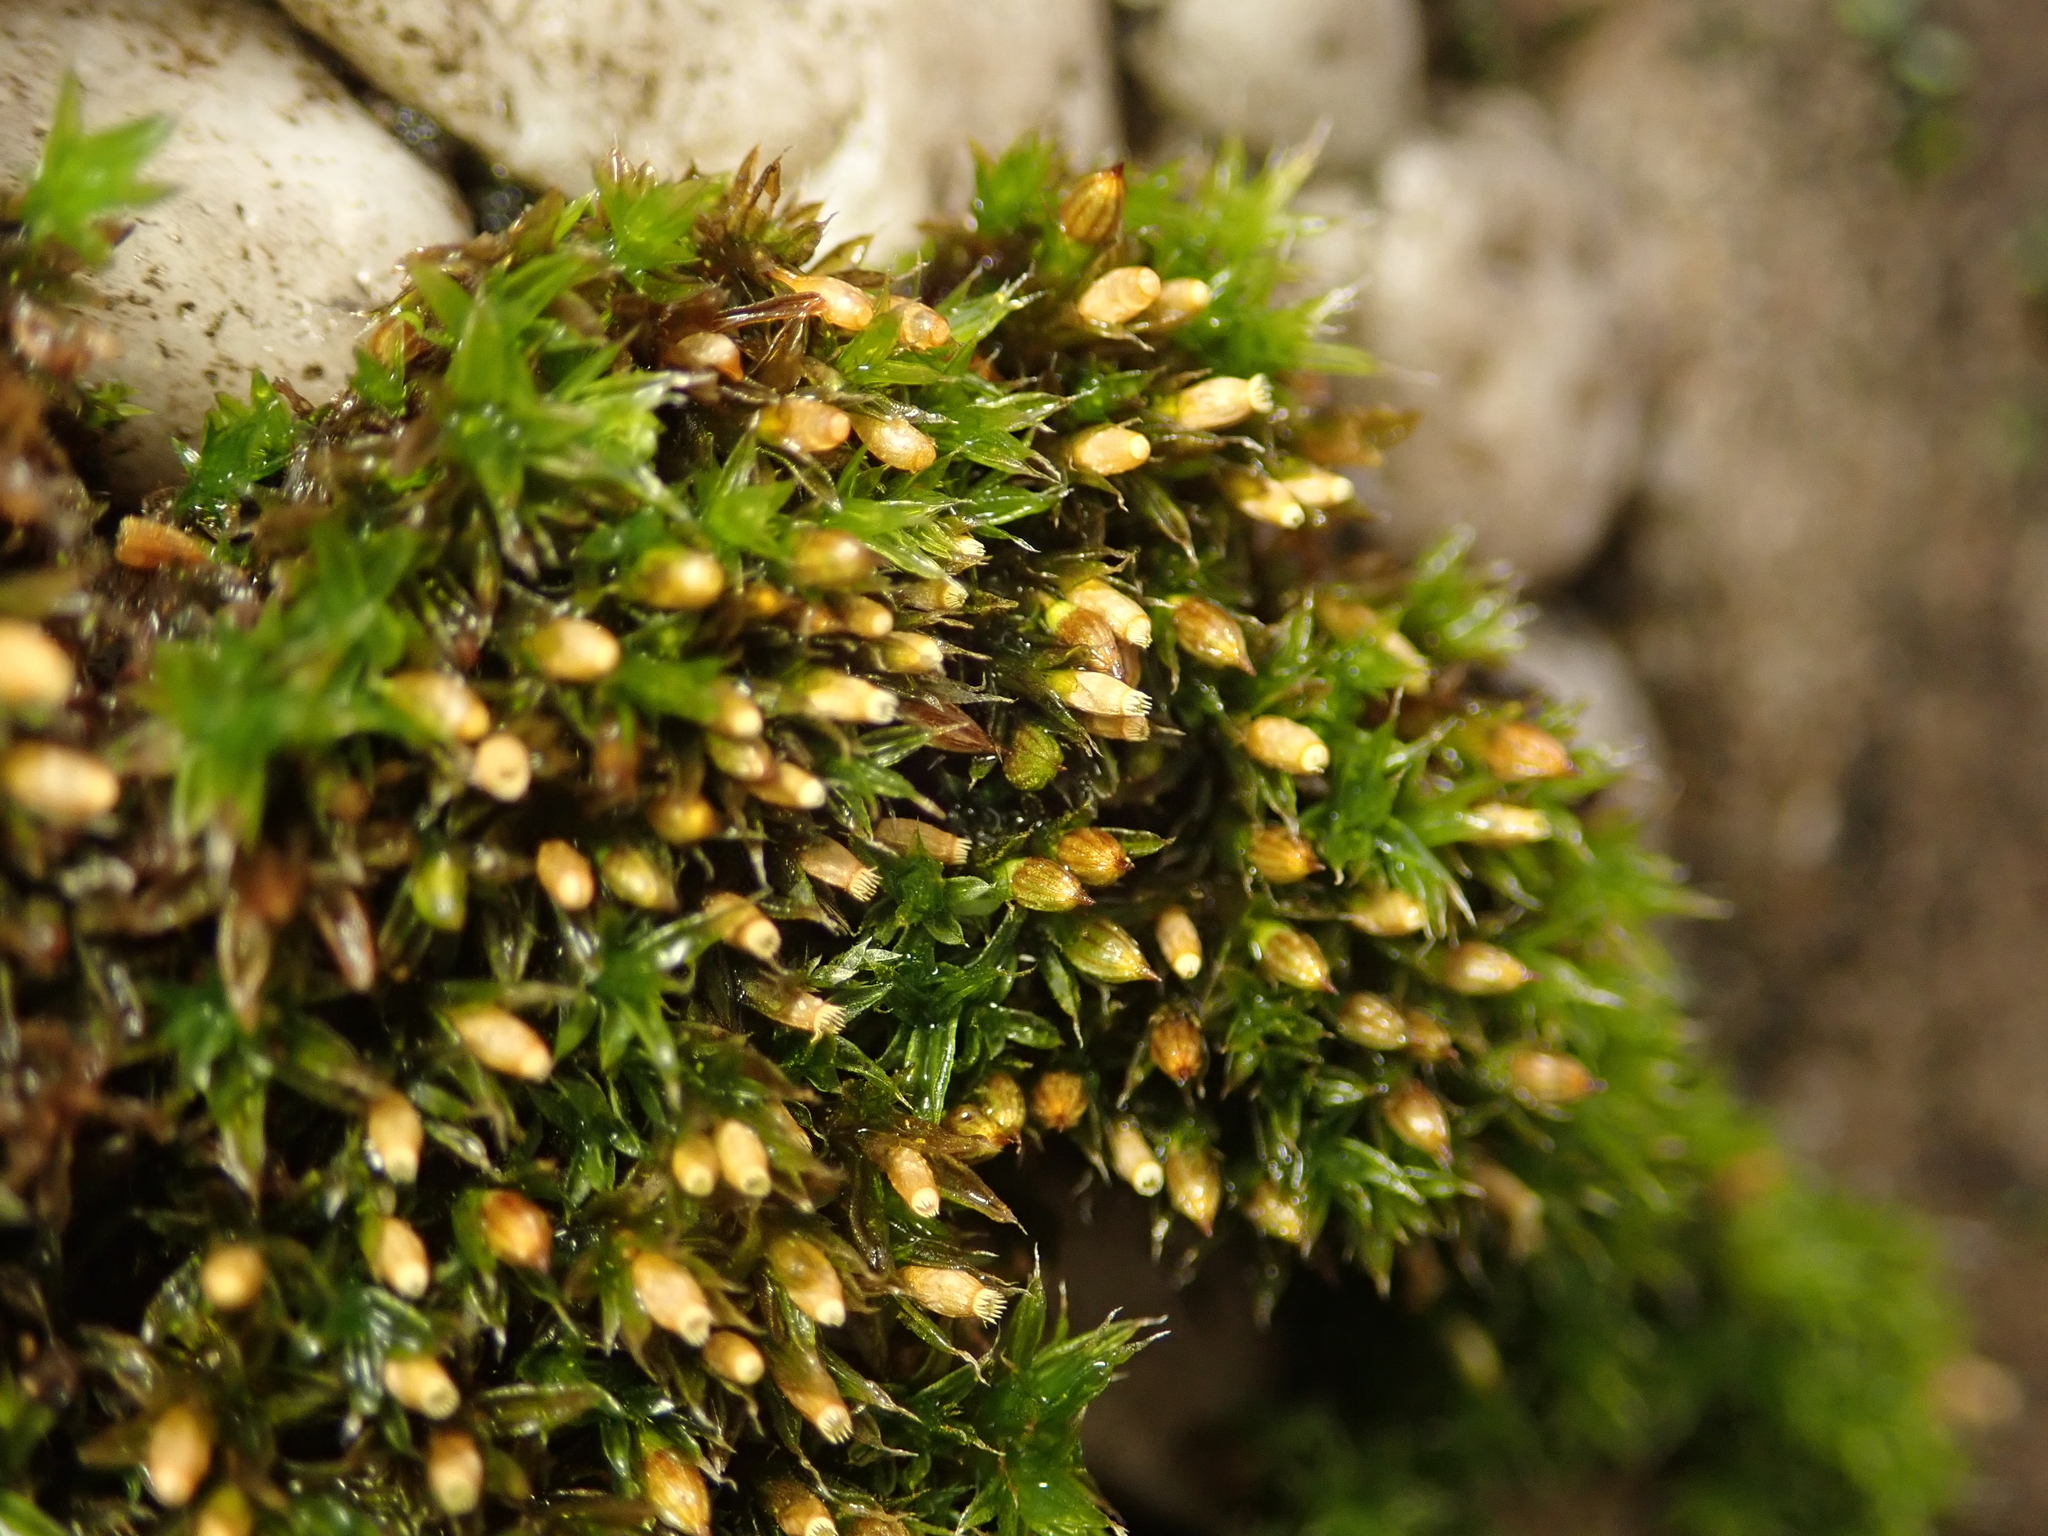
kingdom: Plantae
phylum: Bryophyta
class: Bryopsida
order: Orthotrichales
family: Orthotrichaceae
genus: Orthotrichum
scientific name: Orthotrichum diaphanum
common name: White-tipped bristle-moss
